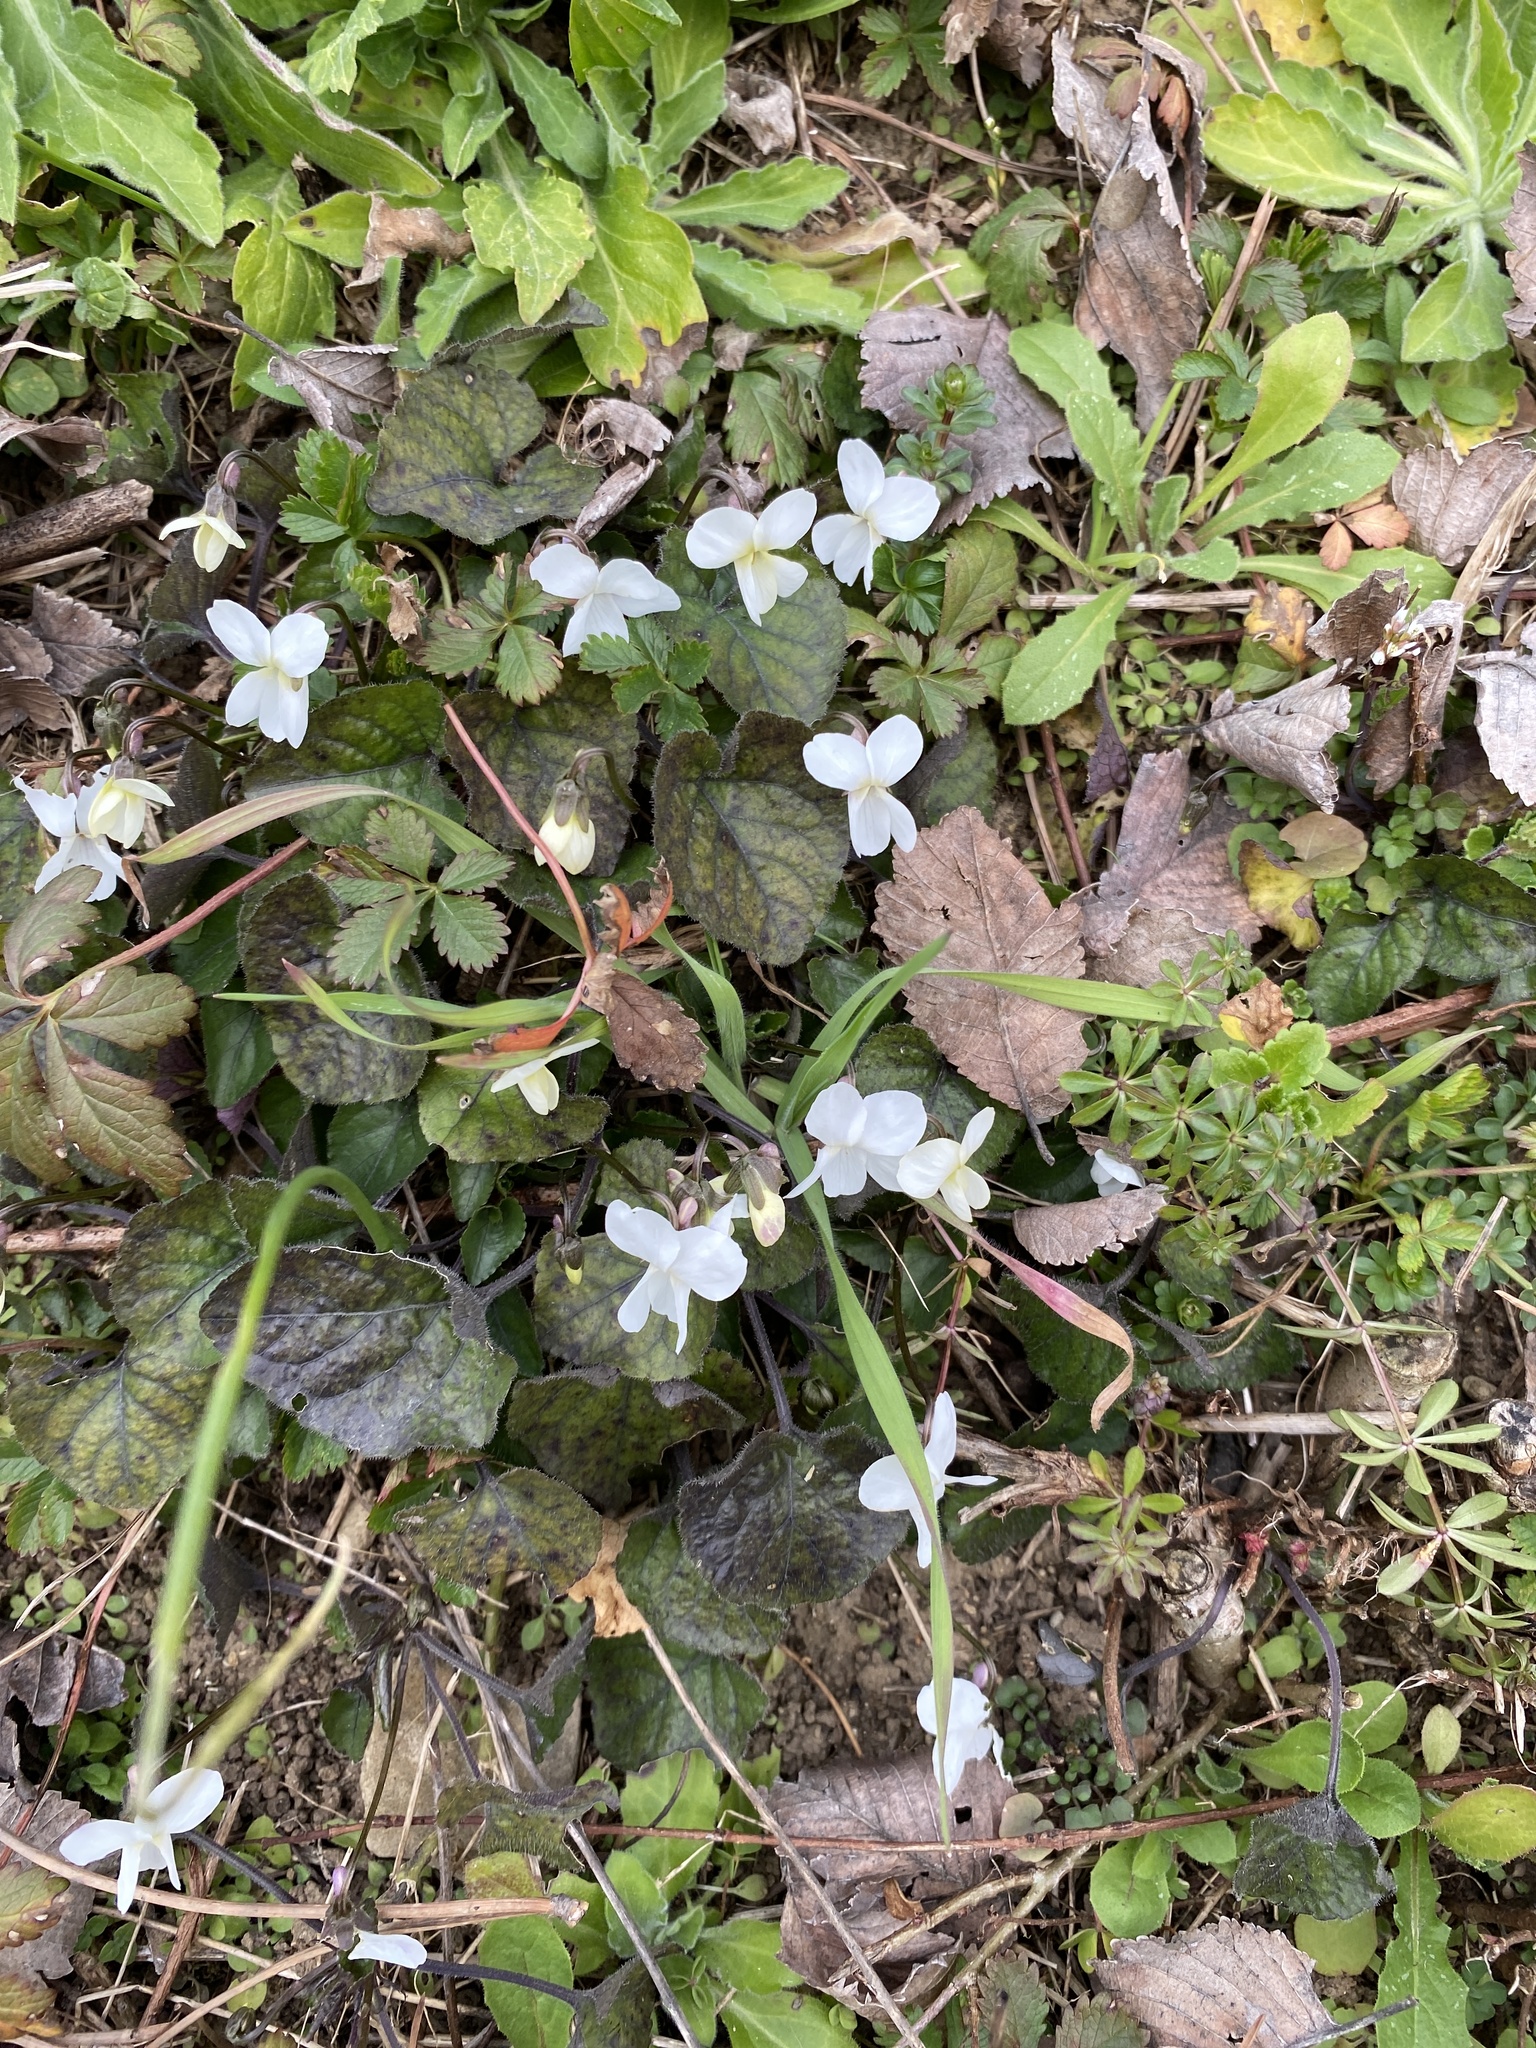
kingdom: Plantae
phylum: Tracheophyta
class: Magnoliopsida
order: Malpighiales
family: Violaceae
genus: Viola
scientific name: Viola alba
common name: White violet
